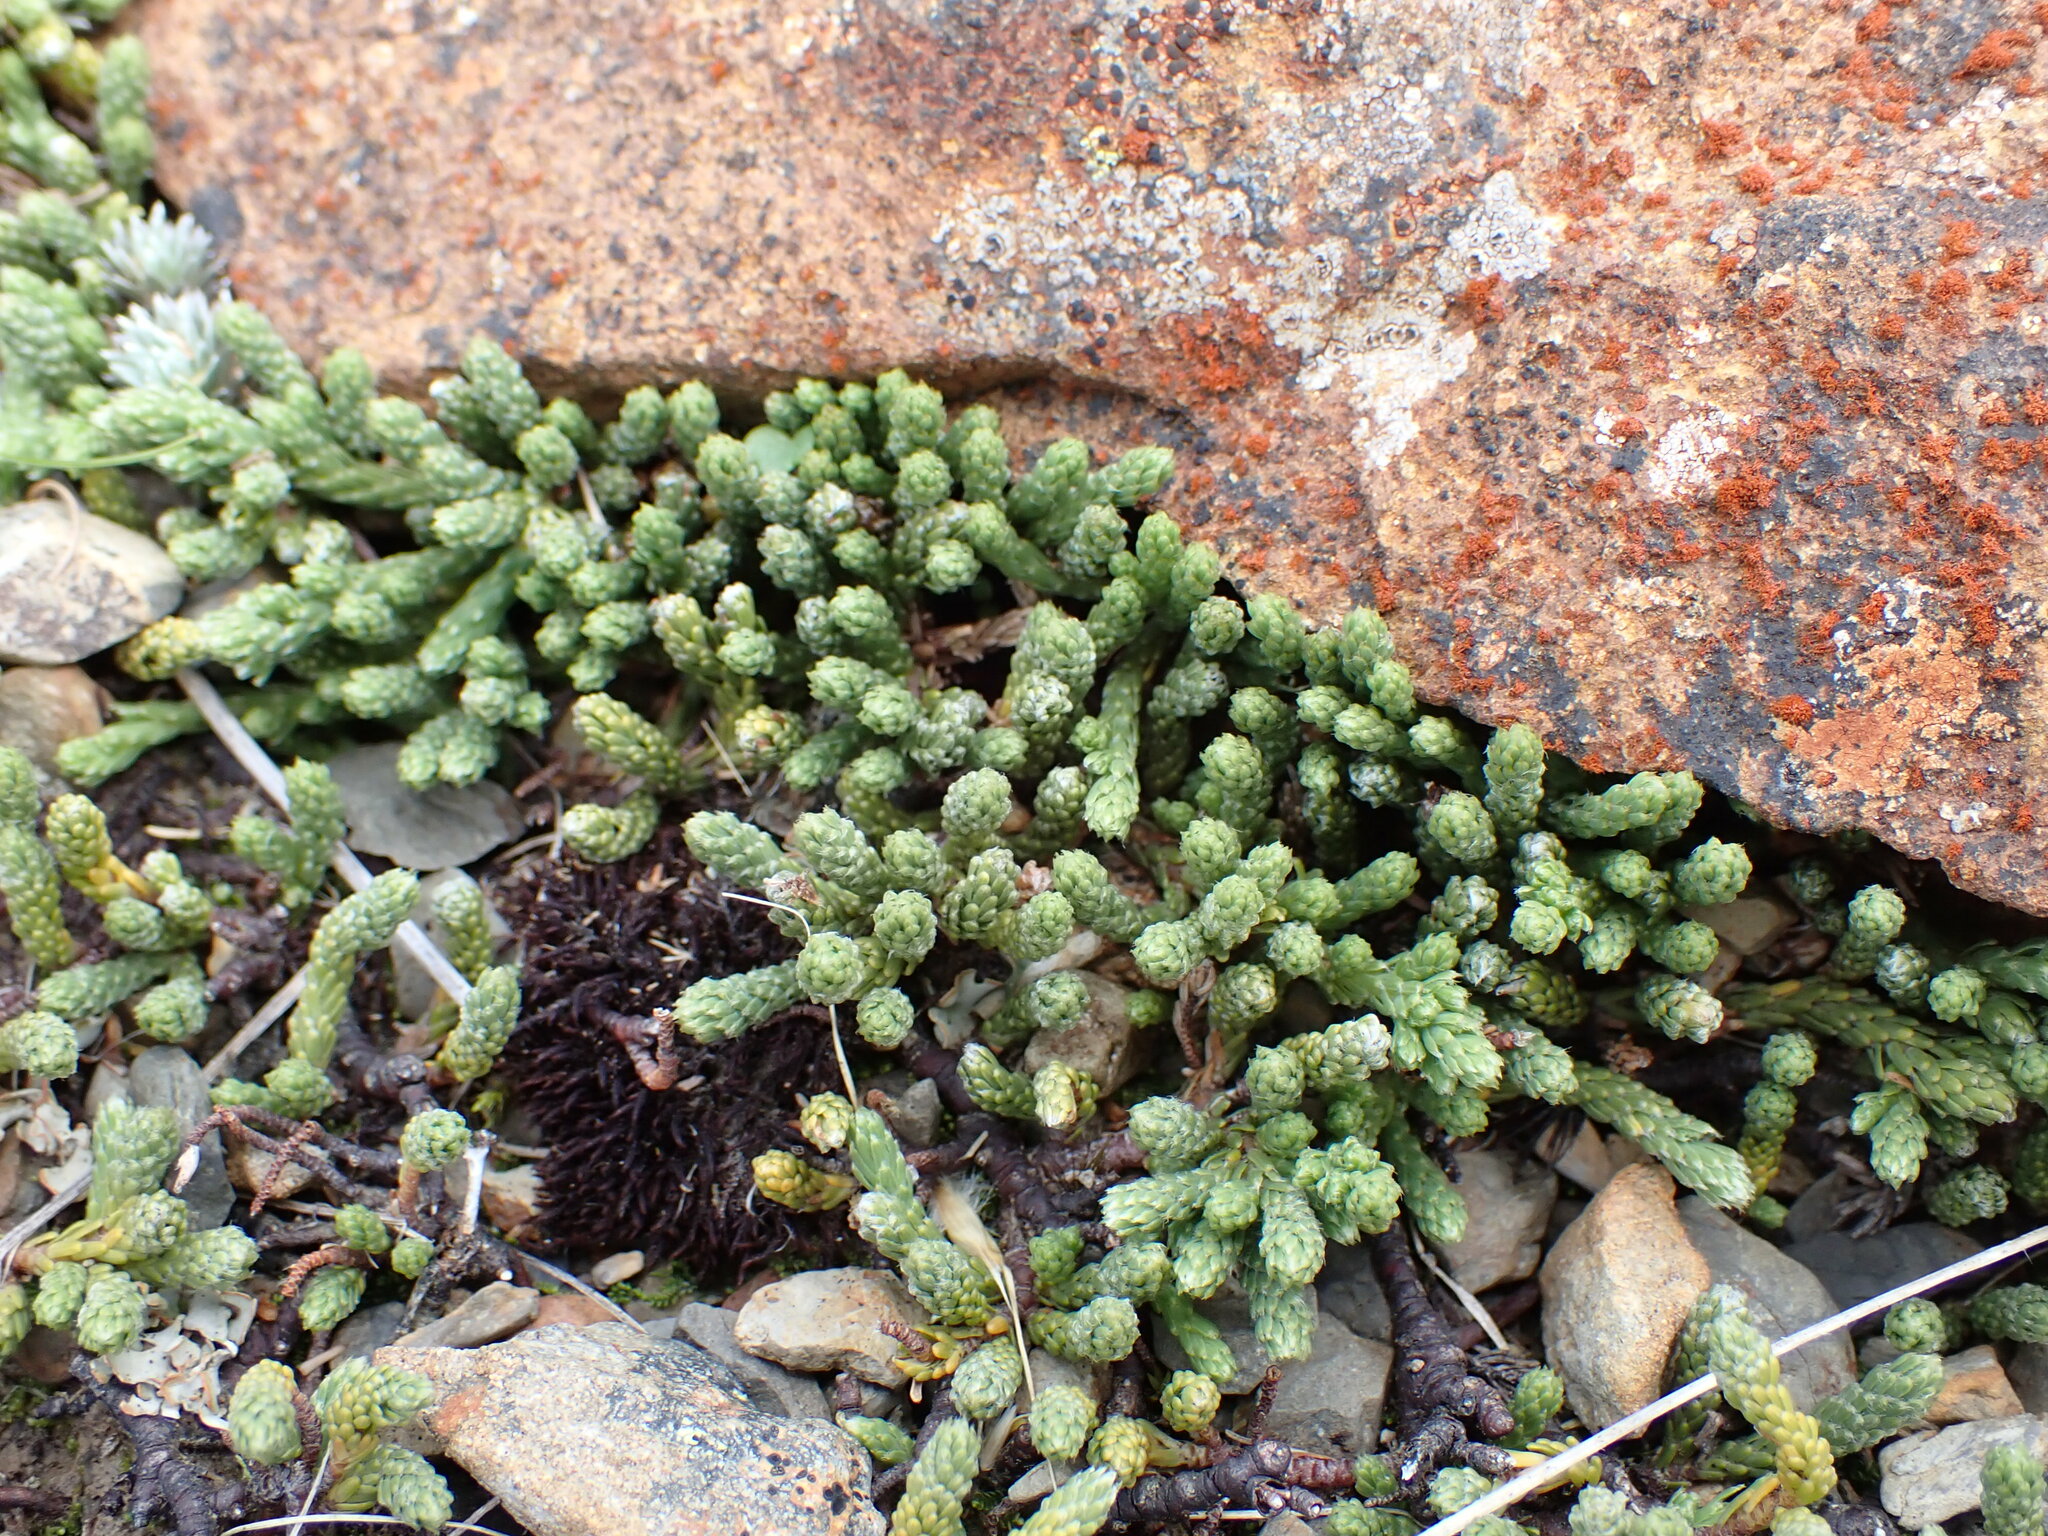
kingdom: Plantae
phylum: Tracheophyta
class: Magnoliopsida
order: Malvales
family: Thymelaeaceae
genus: Kelleria
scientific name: Kelleria dieffenbachii
